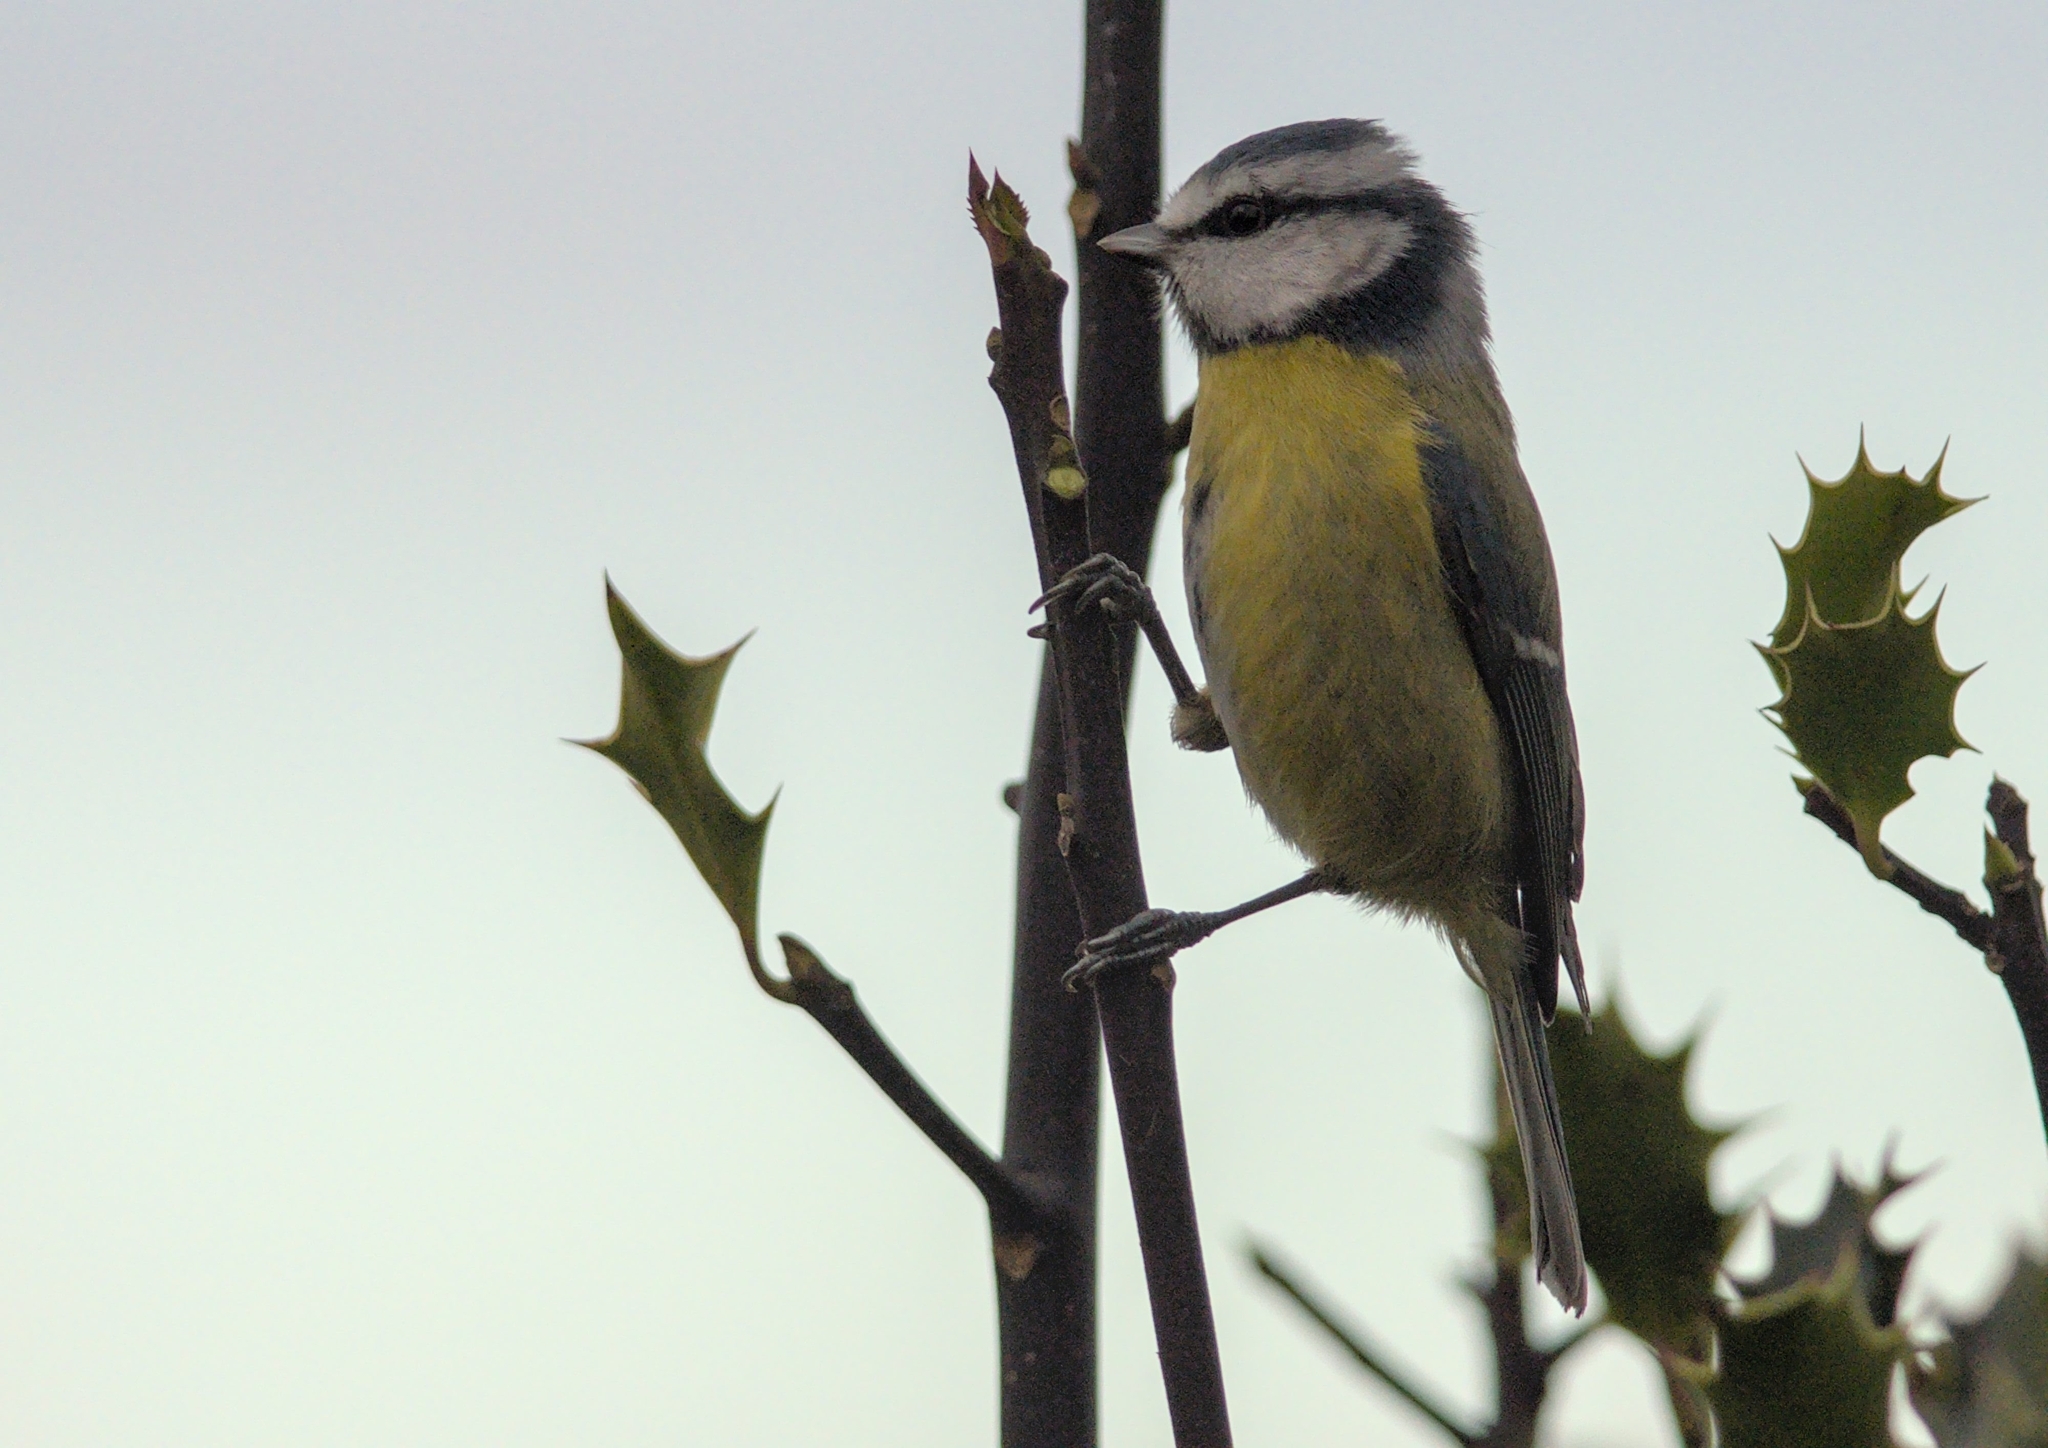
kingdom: Animalia
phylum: Chordata
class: Aves
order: Passeriformes
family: Paridae
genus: Cyanistes
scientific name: Cyanistes caeruleus
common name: Eurasian blue tit
